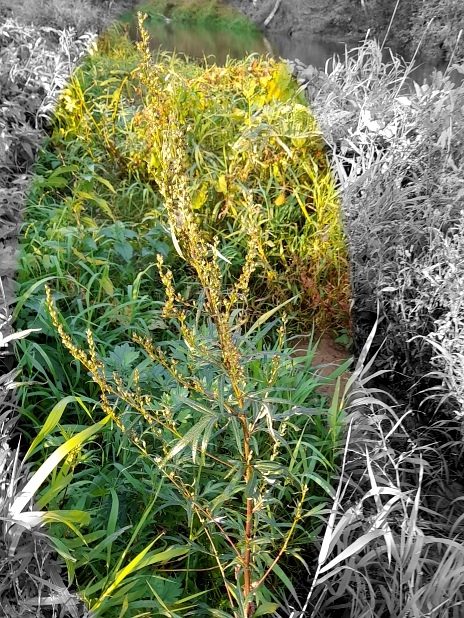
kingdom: Plantae
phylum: Tracheophyta
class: Magnoliopsida
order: Asterales
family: Asteraceae
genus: Artemisia
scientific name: Artemisia vulgaris
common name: Mugwort
